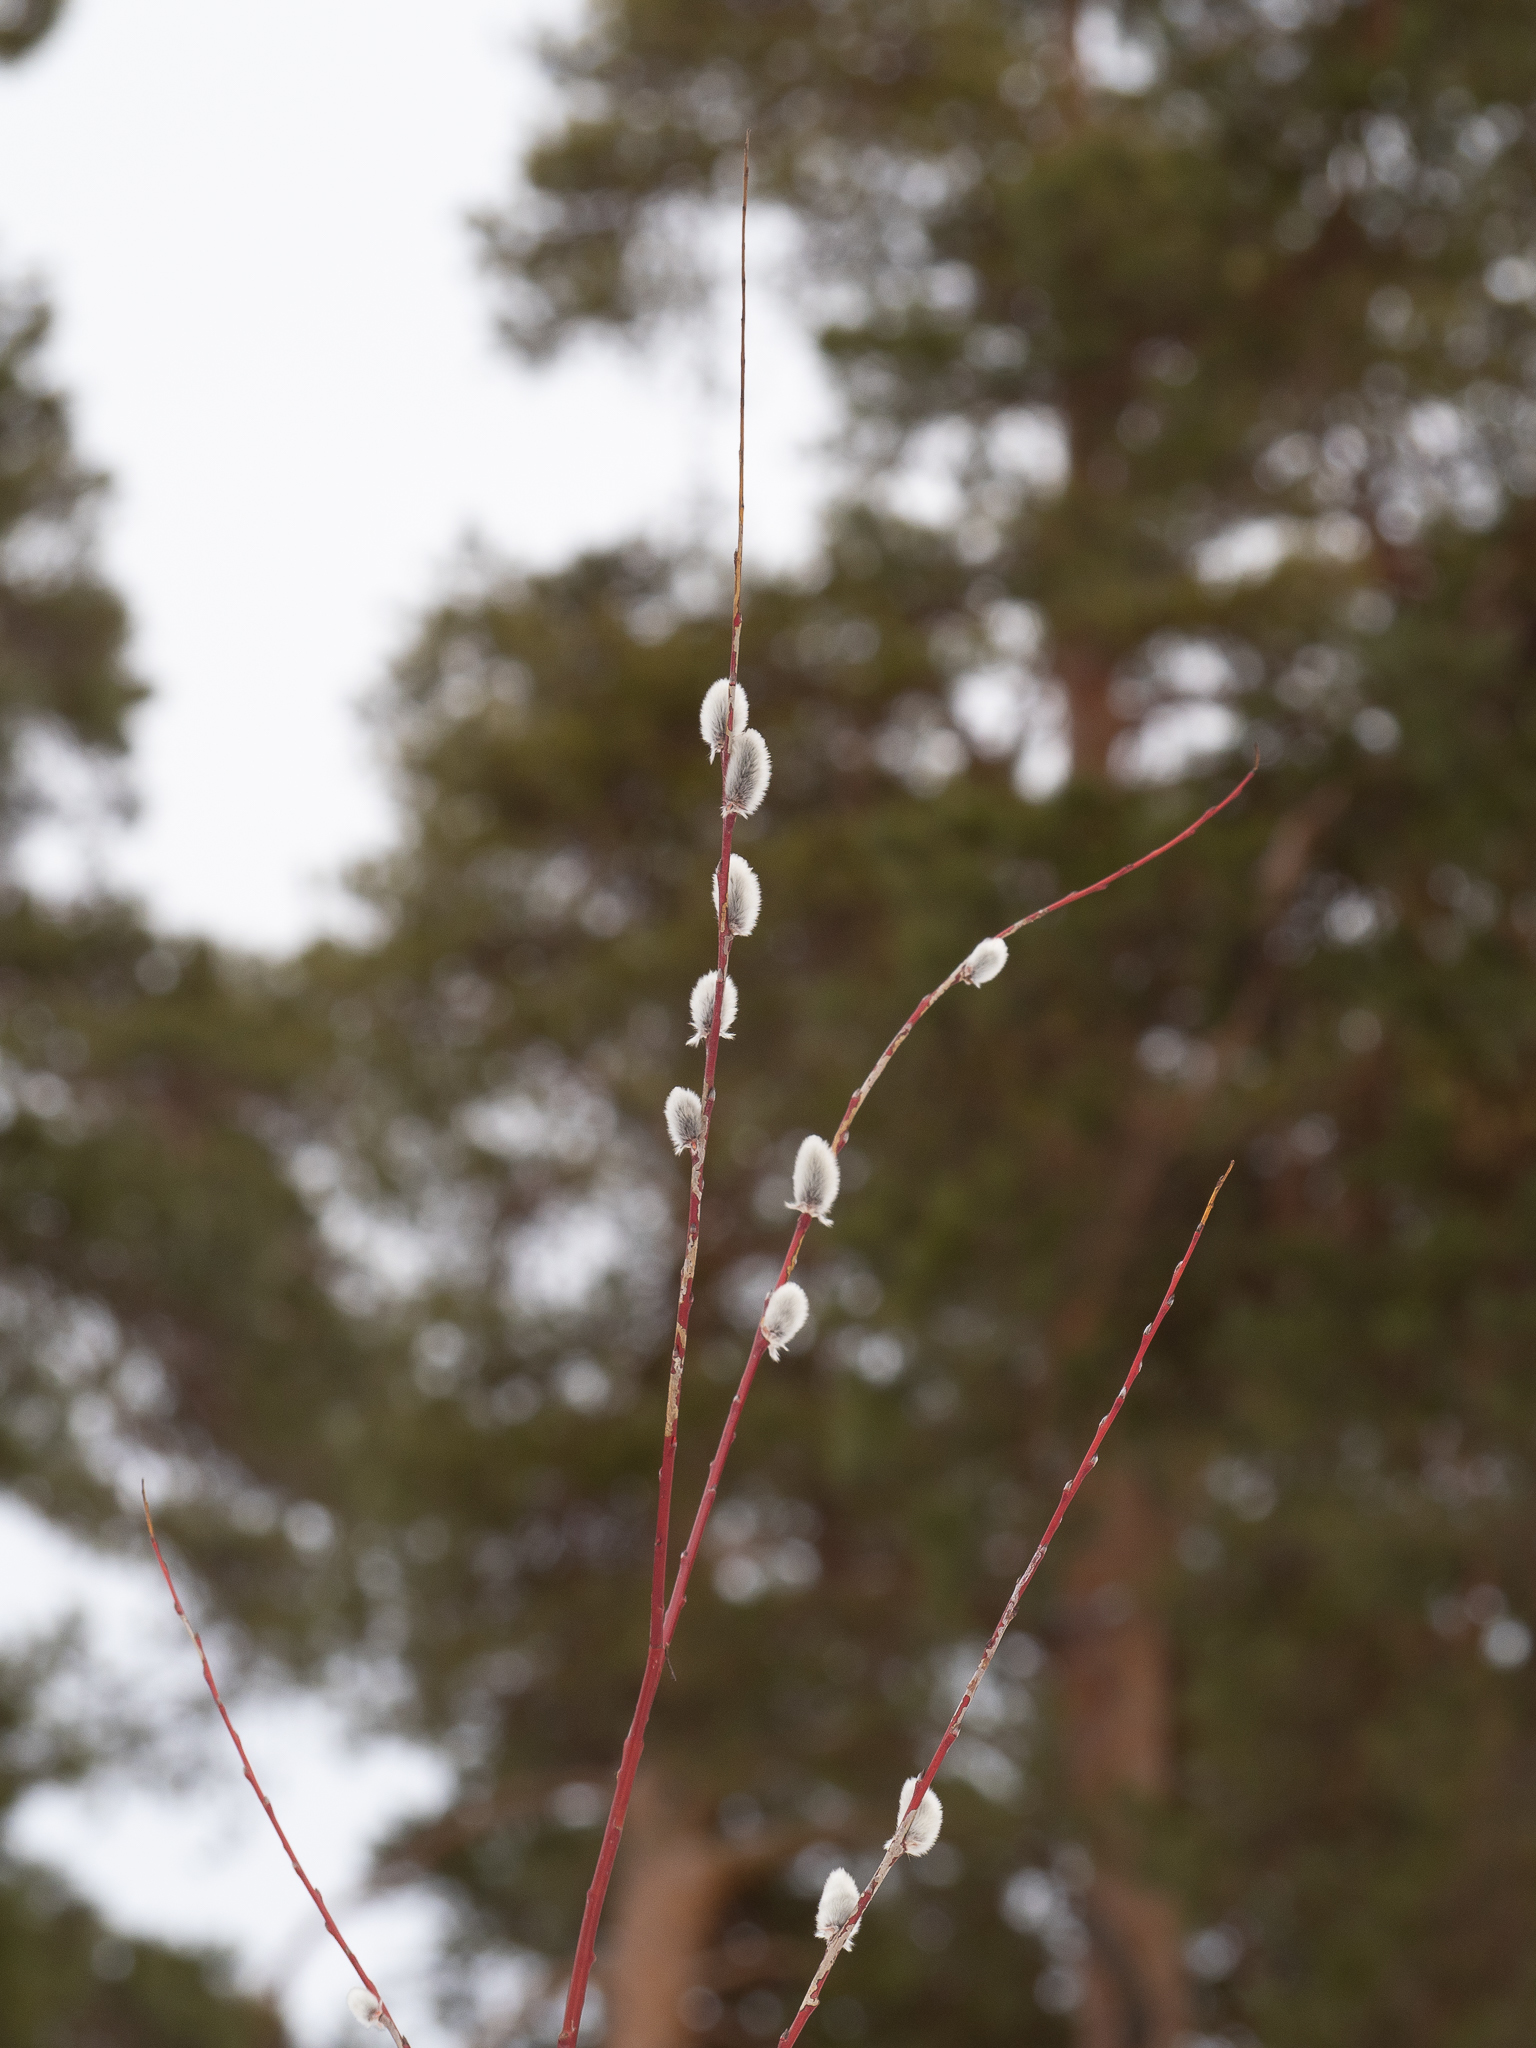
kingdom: Plantae
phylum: Tracheophyta
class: Magnoliopsida
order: Malpighiales
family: Salicaceae
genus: Salix
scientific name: Salix acutifolia
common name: Siberian violet-willow
